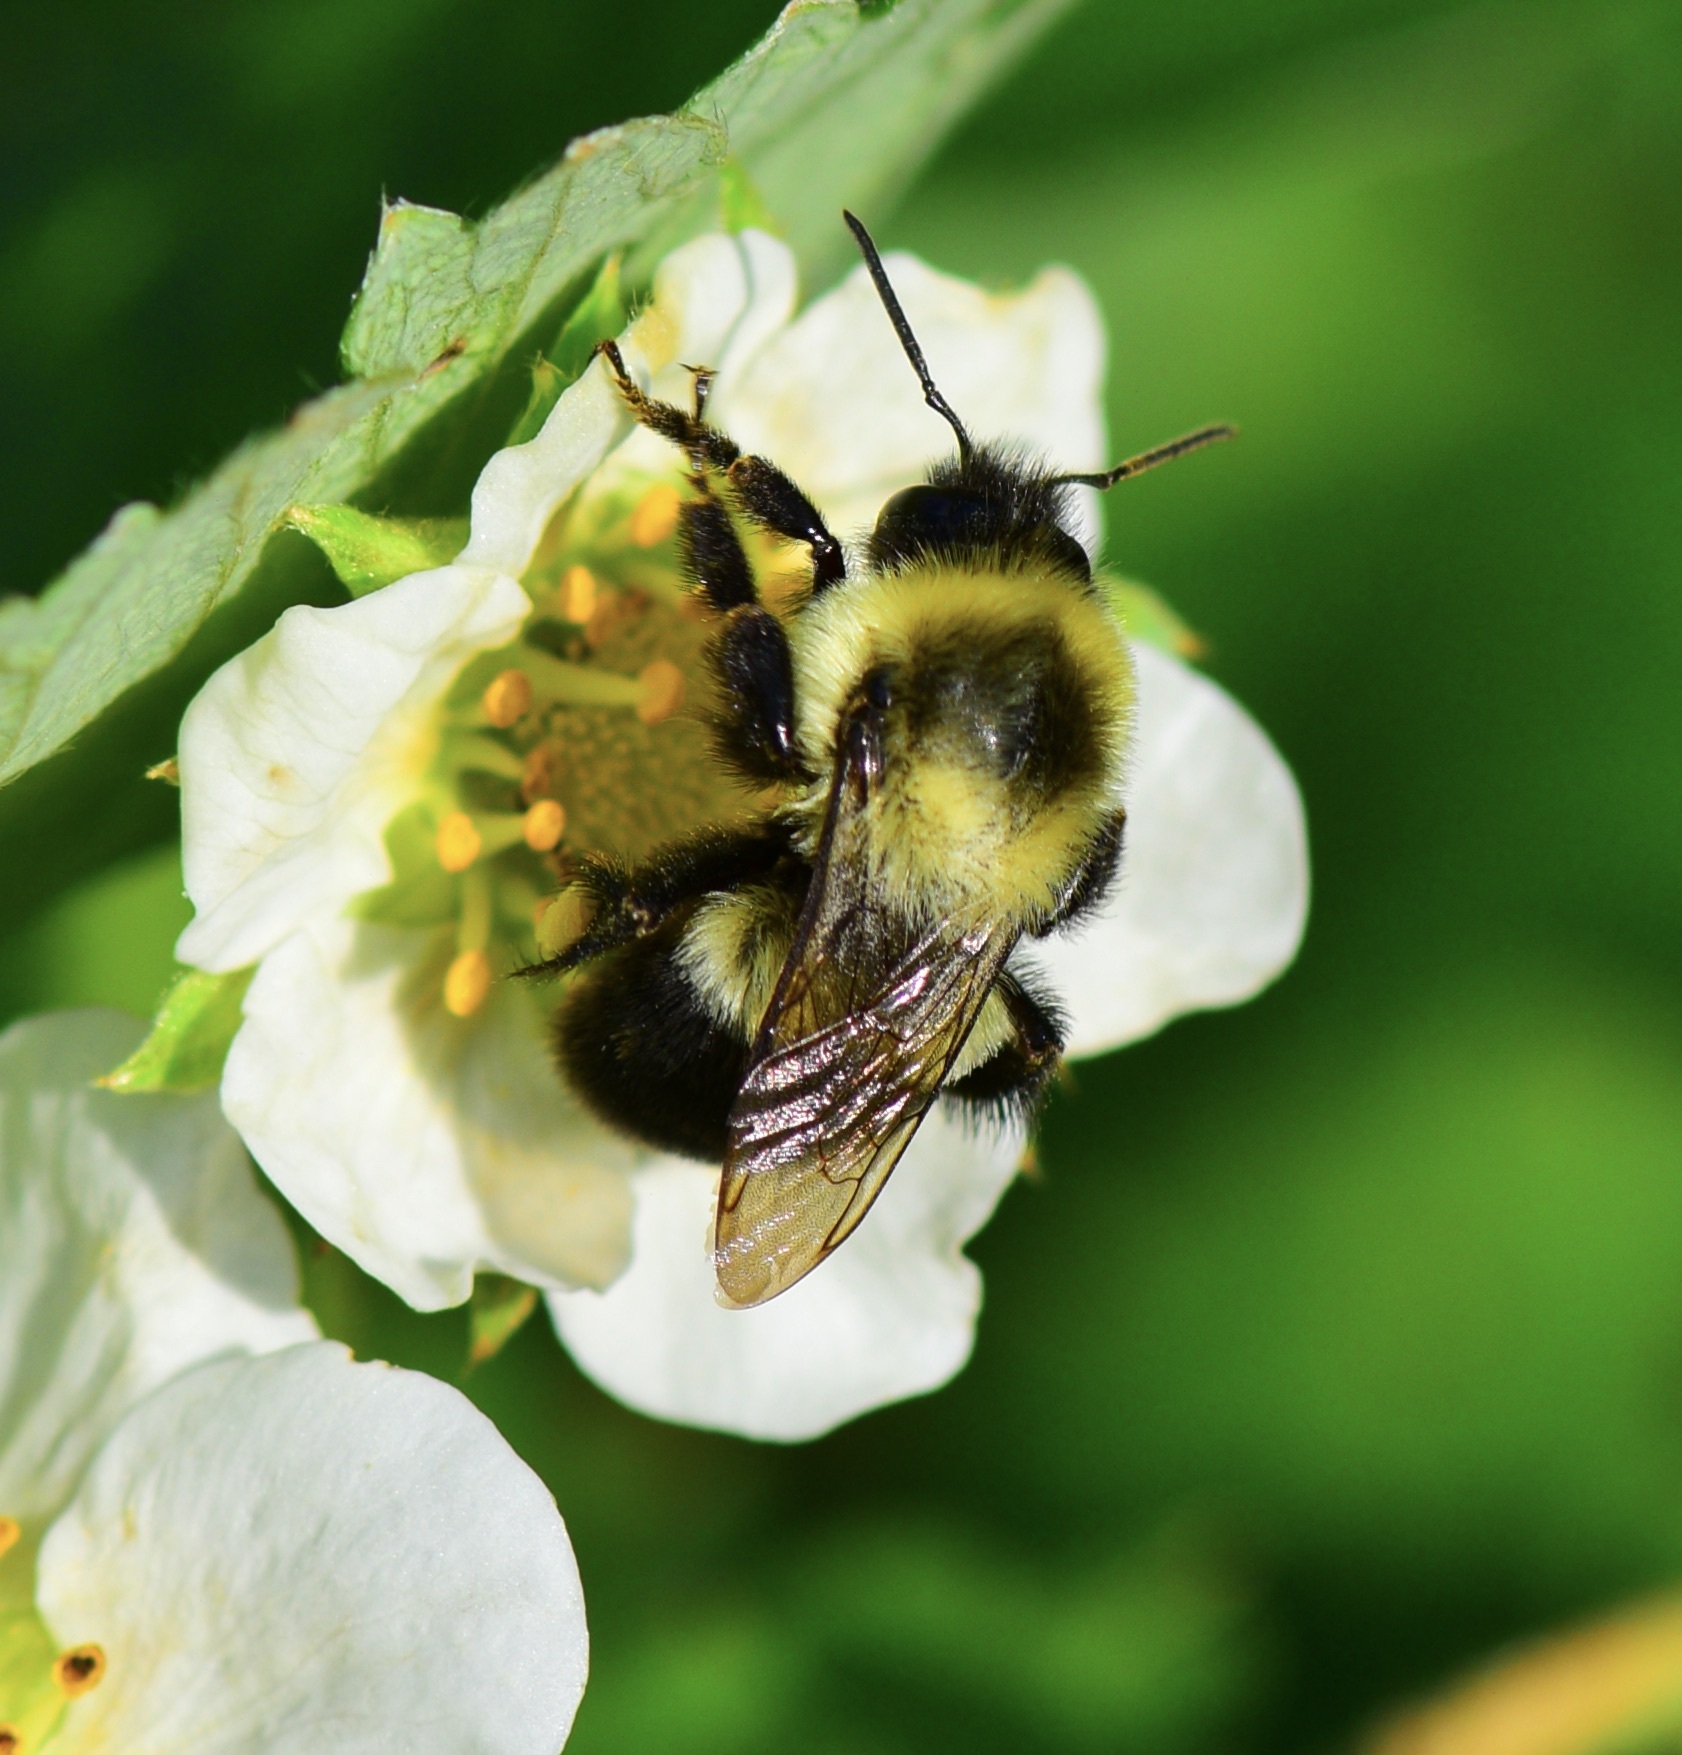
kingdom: Animalia
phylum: Arthropoda
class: Insecta
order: Hymenoptera
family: Apidae
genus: Bombus
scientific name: Bombus impatiens
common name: Common eastern bumble bee
